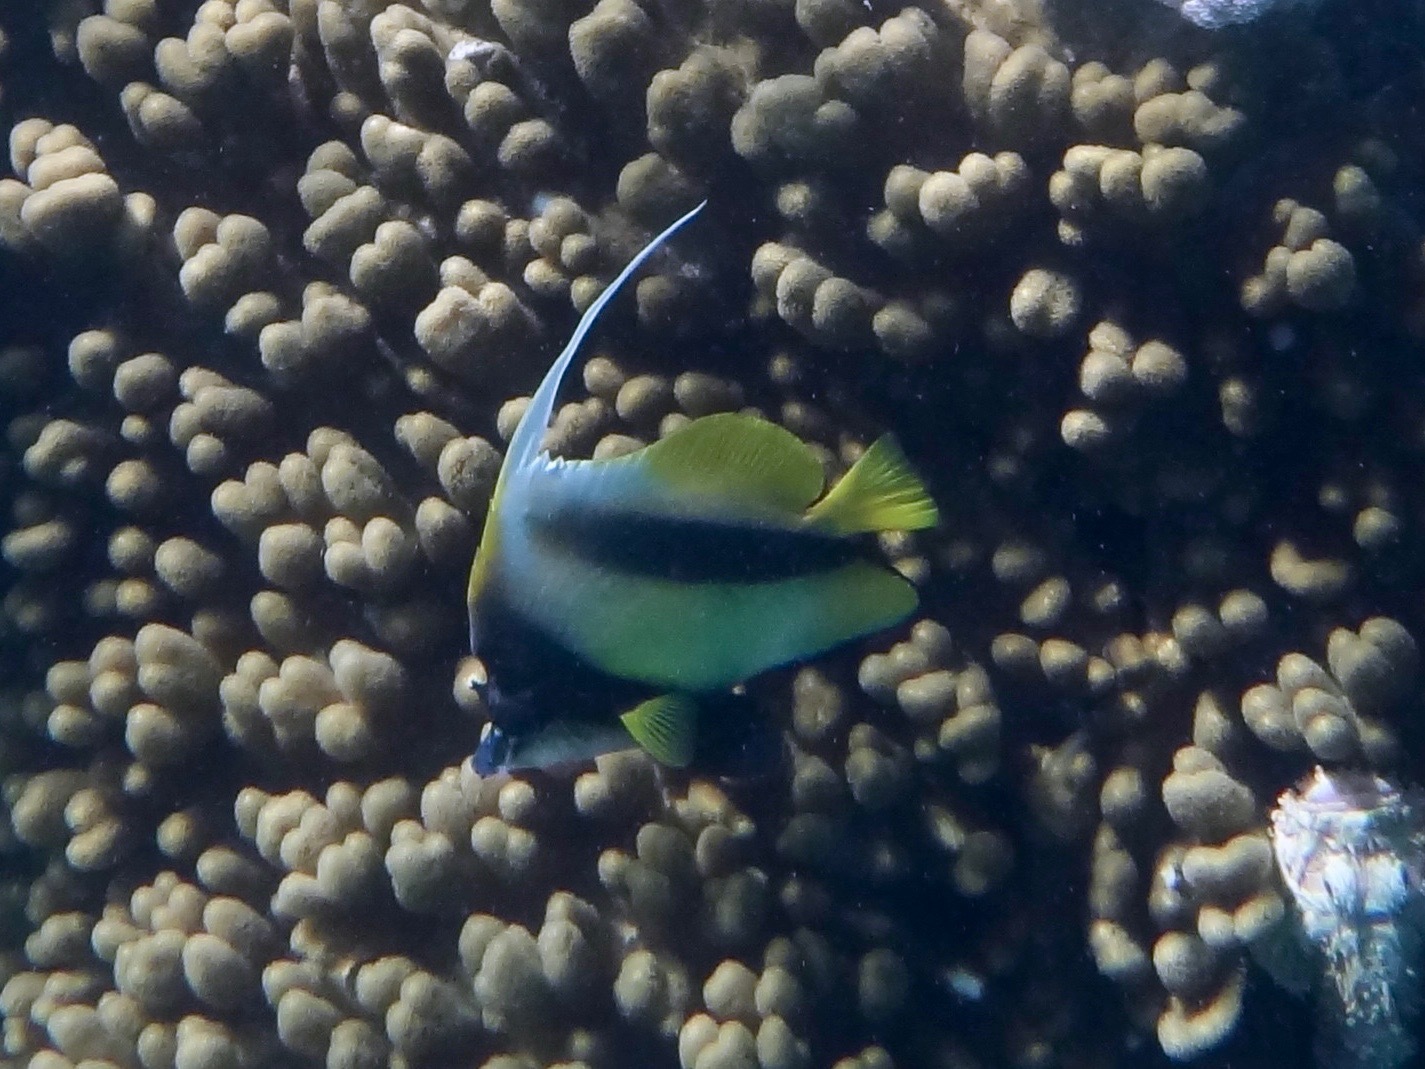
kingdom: Animalia
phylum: Chordata
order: Perciformes
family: Chaetodontidae
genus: Heniochus
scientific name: Heniochus intermedius
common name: Red sea bannerfish
